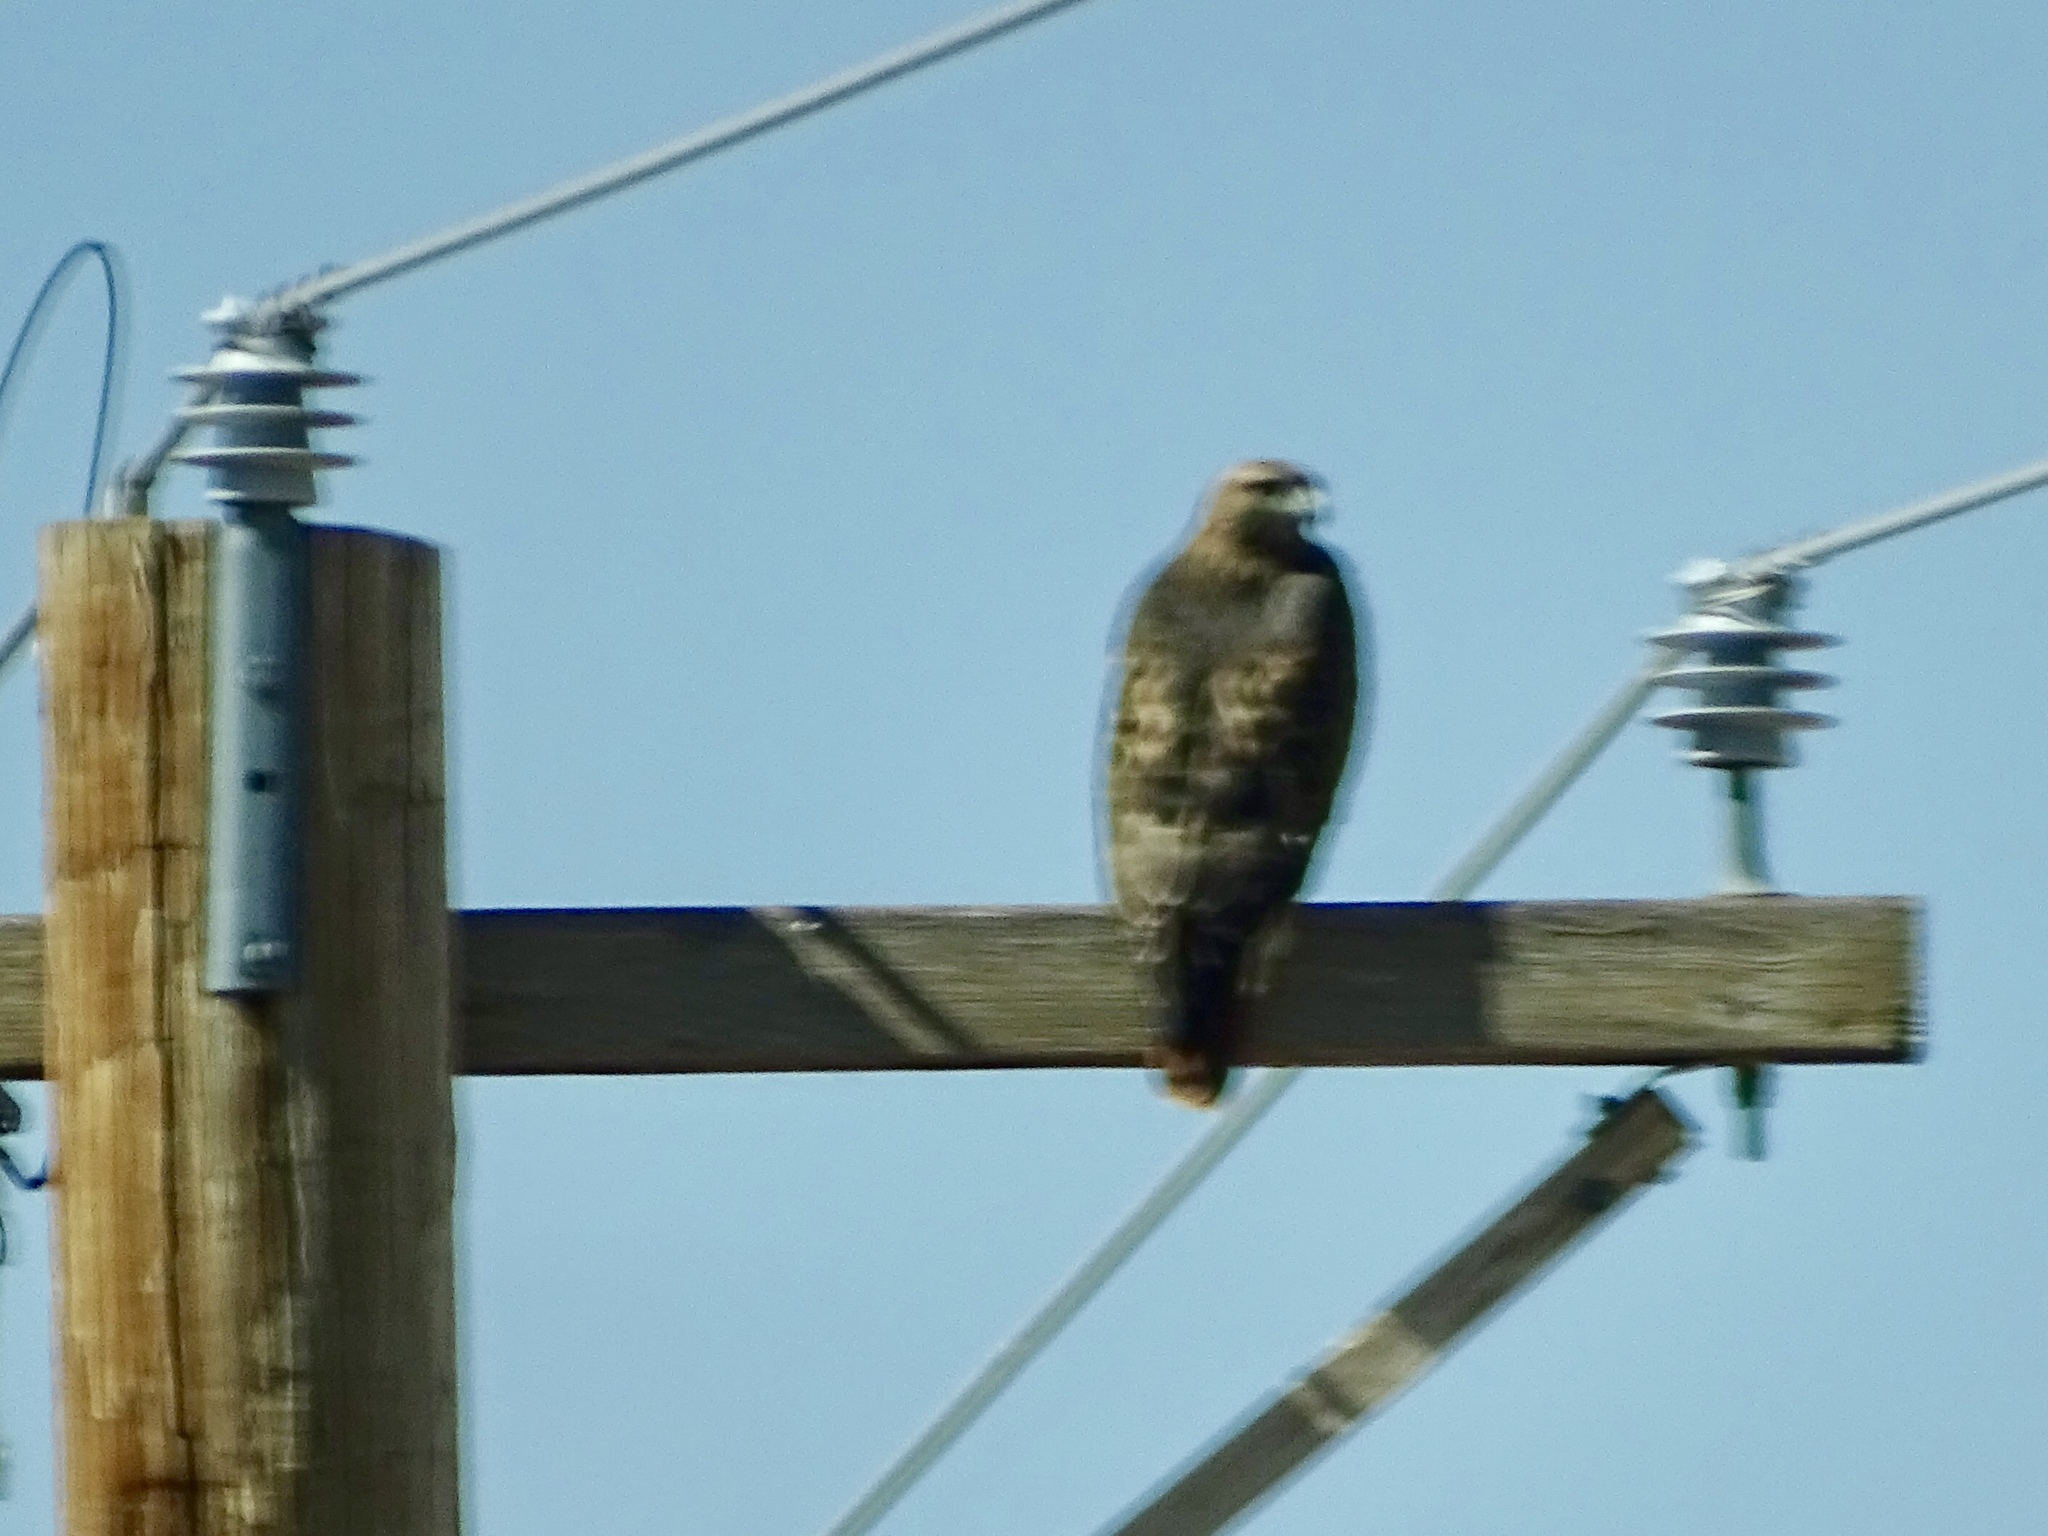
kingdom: Animalia
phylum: Chordata
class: Aves
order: Accipitriformes
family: Accipitridae
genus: Buteo
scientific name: Buteo jamaicensis
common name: Red-tailed hawk
